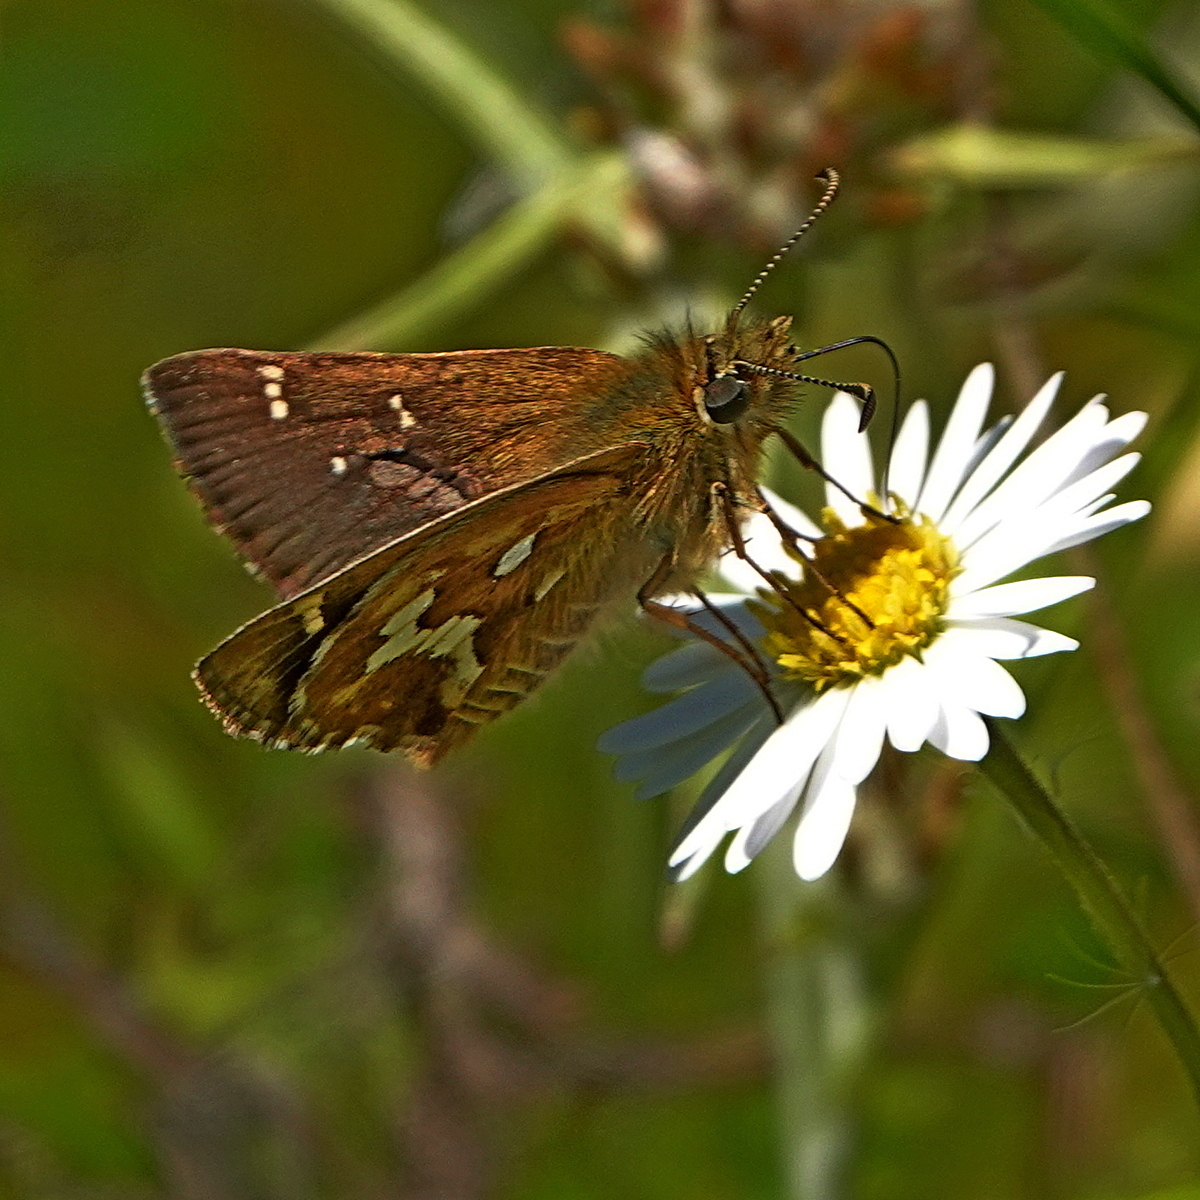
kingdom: Animalia
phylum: Arthropoda
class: Insecta
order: Lepidoptera
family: Hesperiidae
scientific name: Hesperiidae
